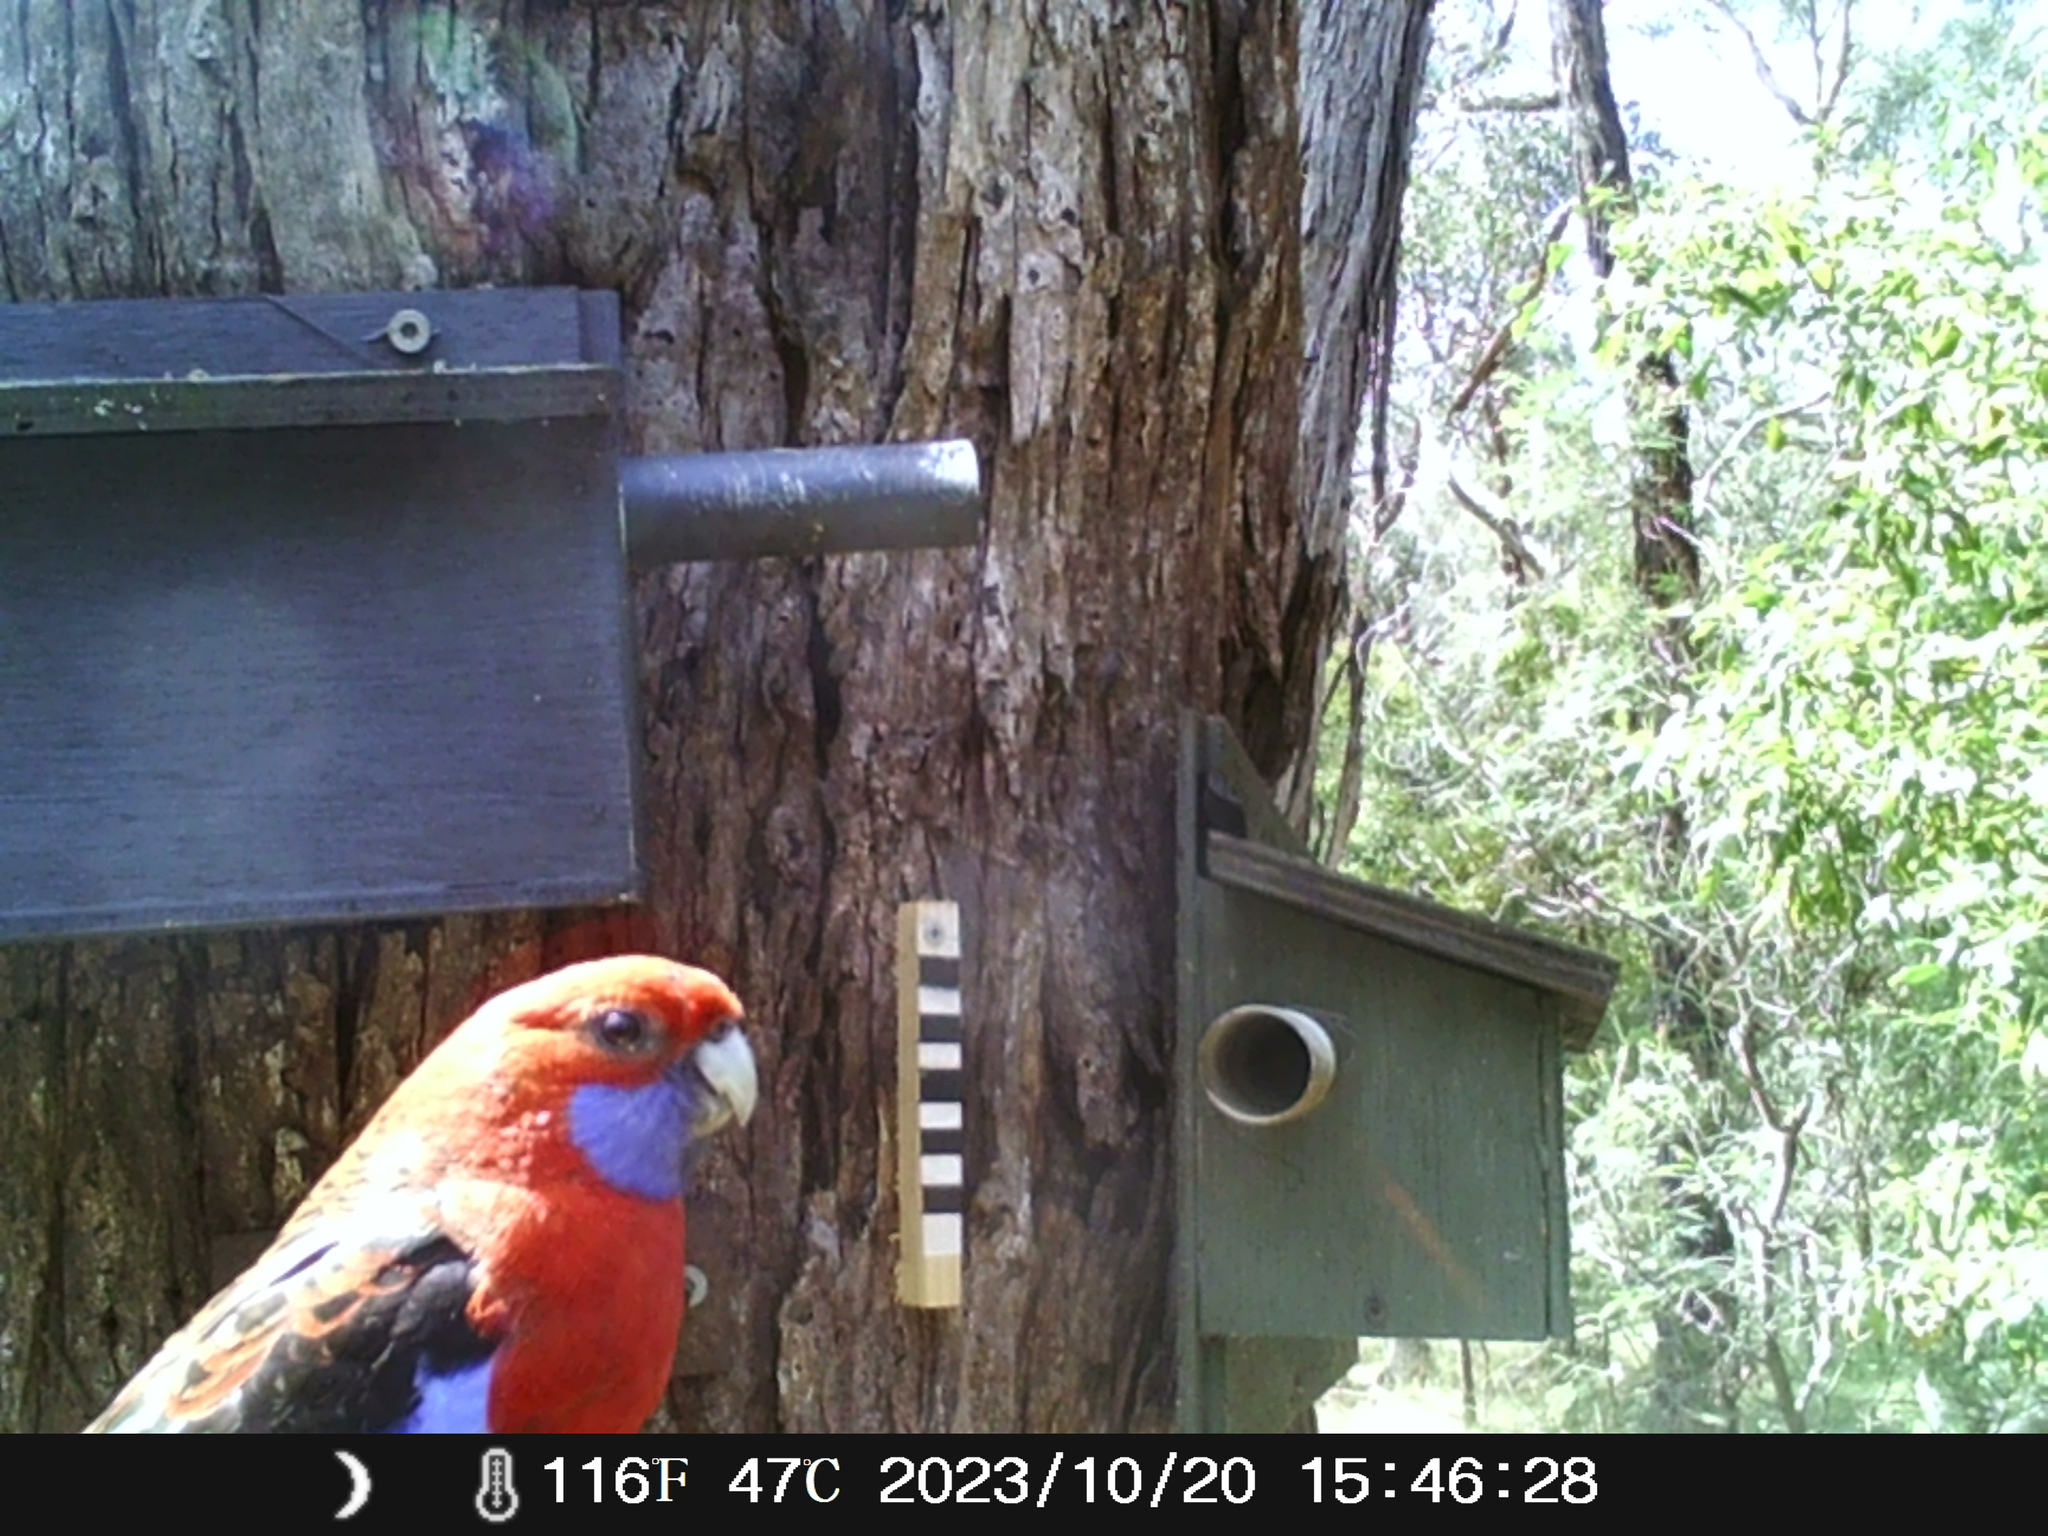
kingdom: Animalia
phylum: Chordata
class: Aves
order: Psittaciformes
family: Psittacidae
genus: Platycercus
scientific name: Platycercus elegans
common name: Crimson rosella
